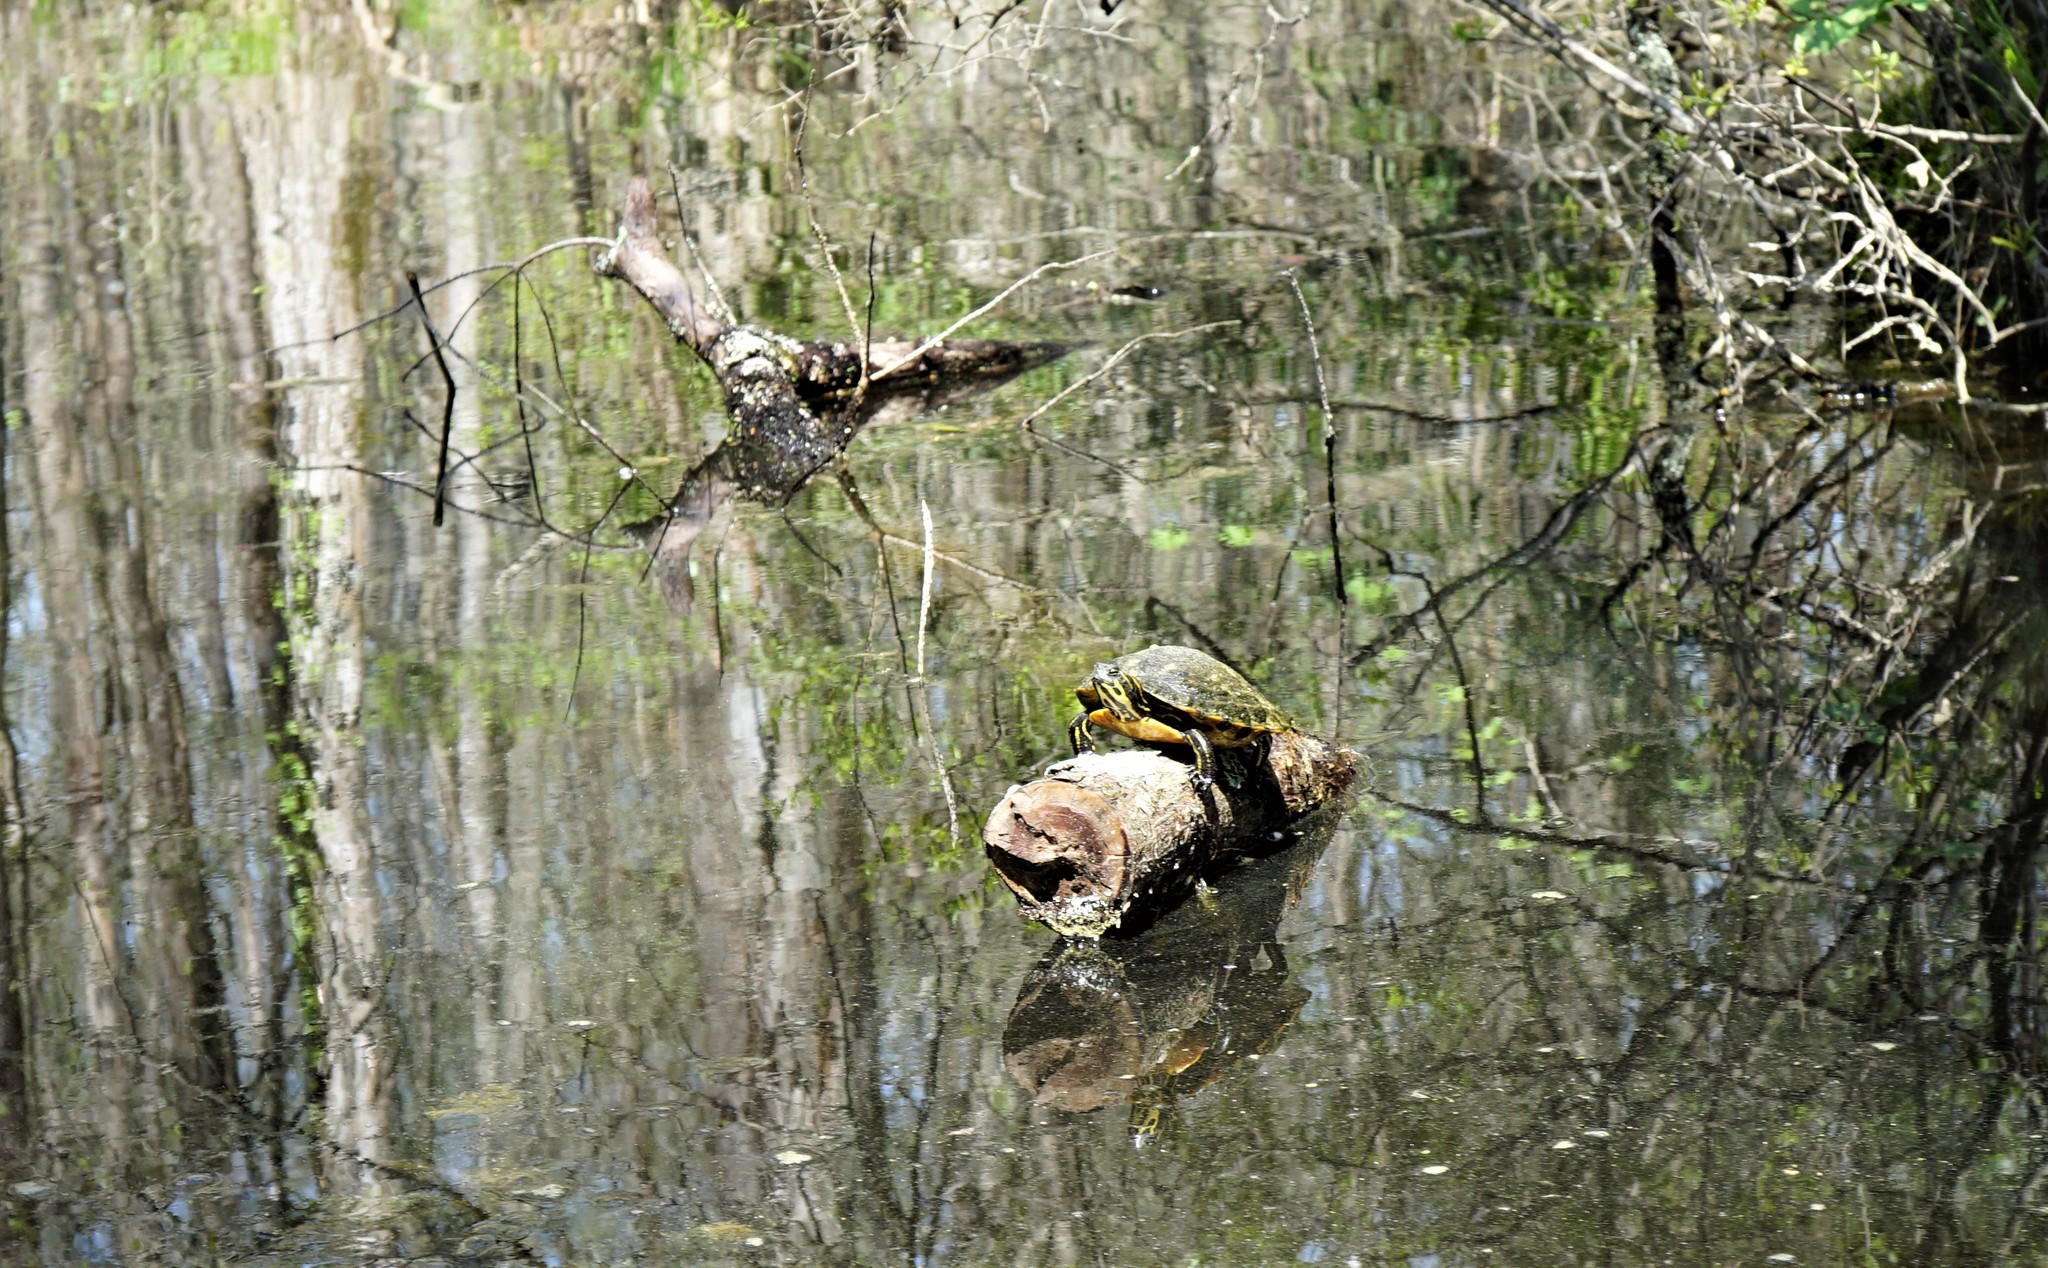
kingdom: Animalia
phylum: Chordata
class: Testudines
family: Emydidae
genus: Trachemys
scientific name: Trachemys scripta
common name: Slider
